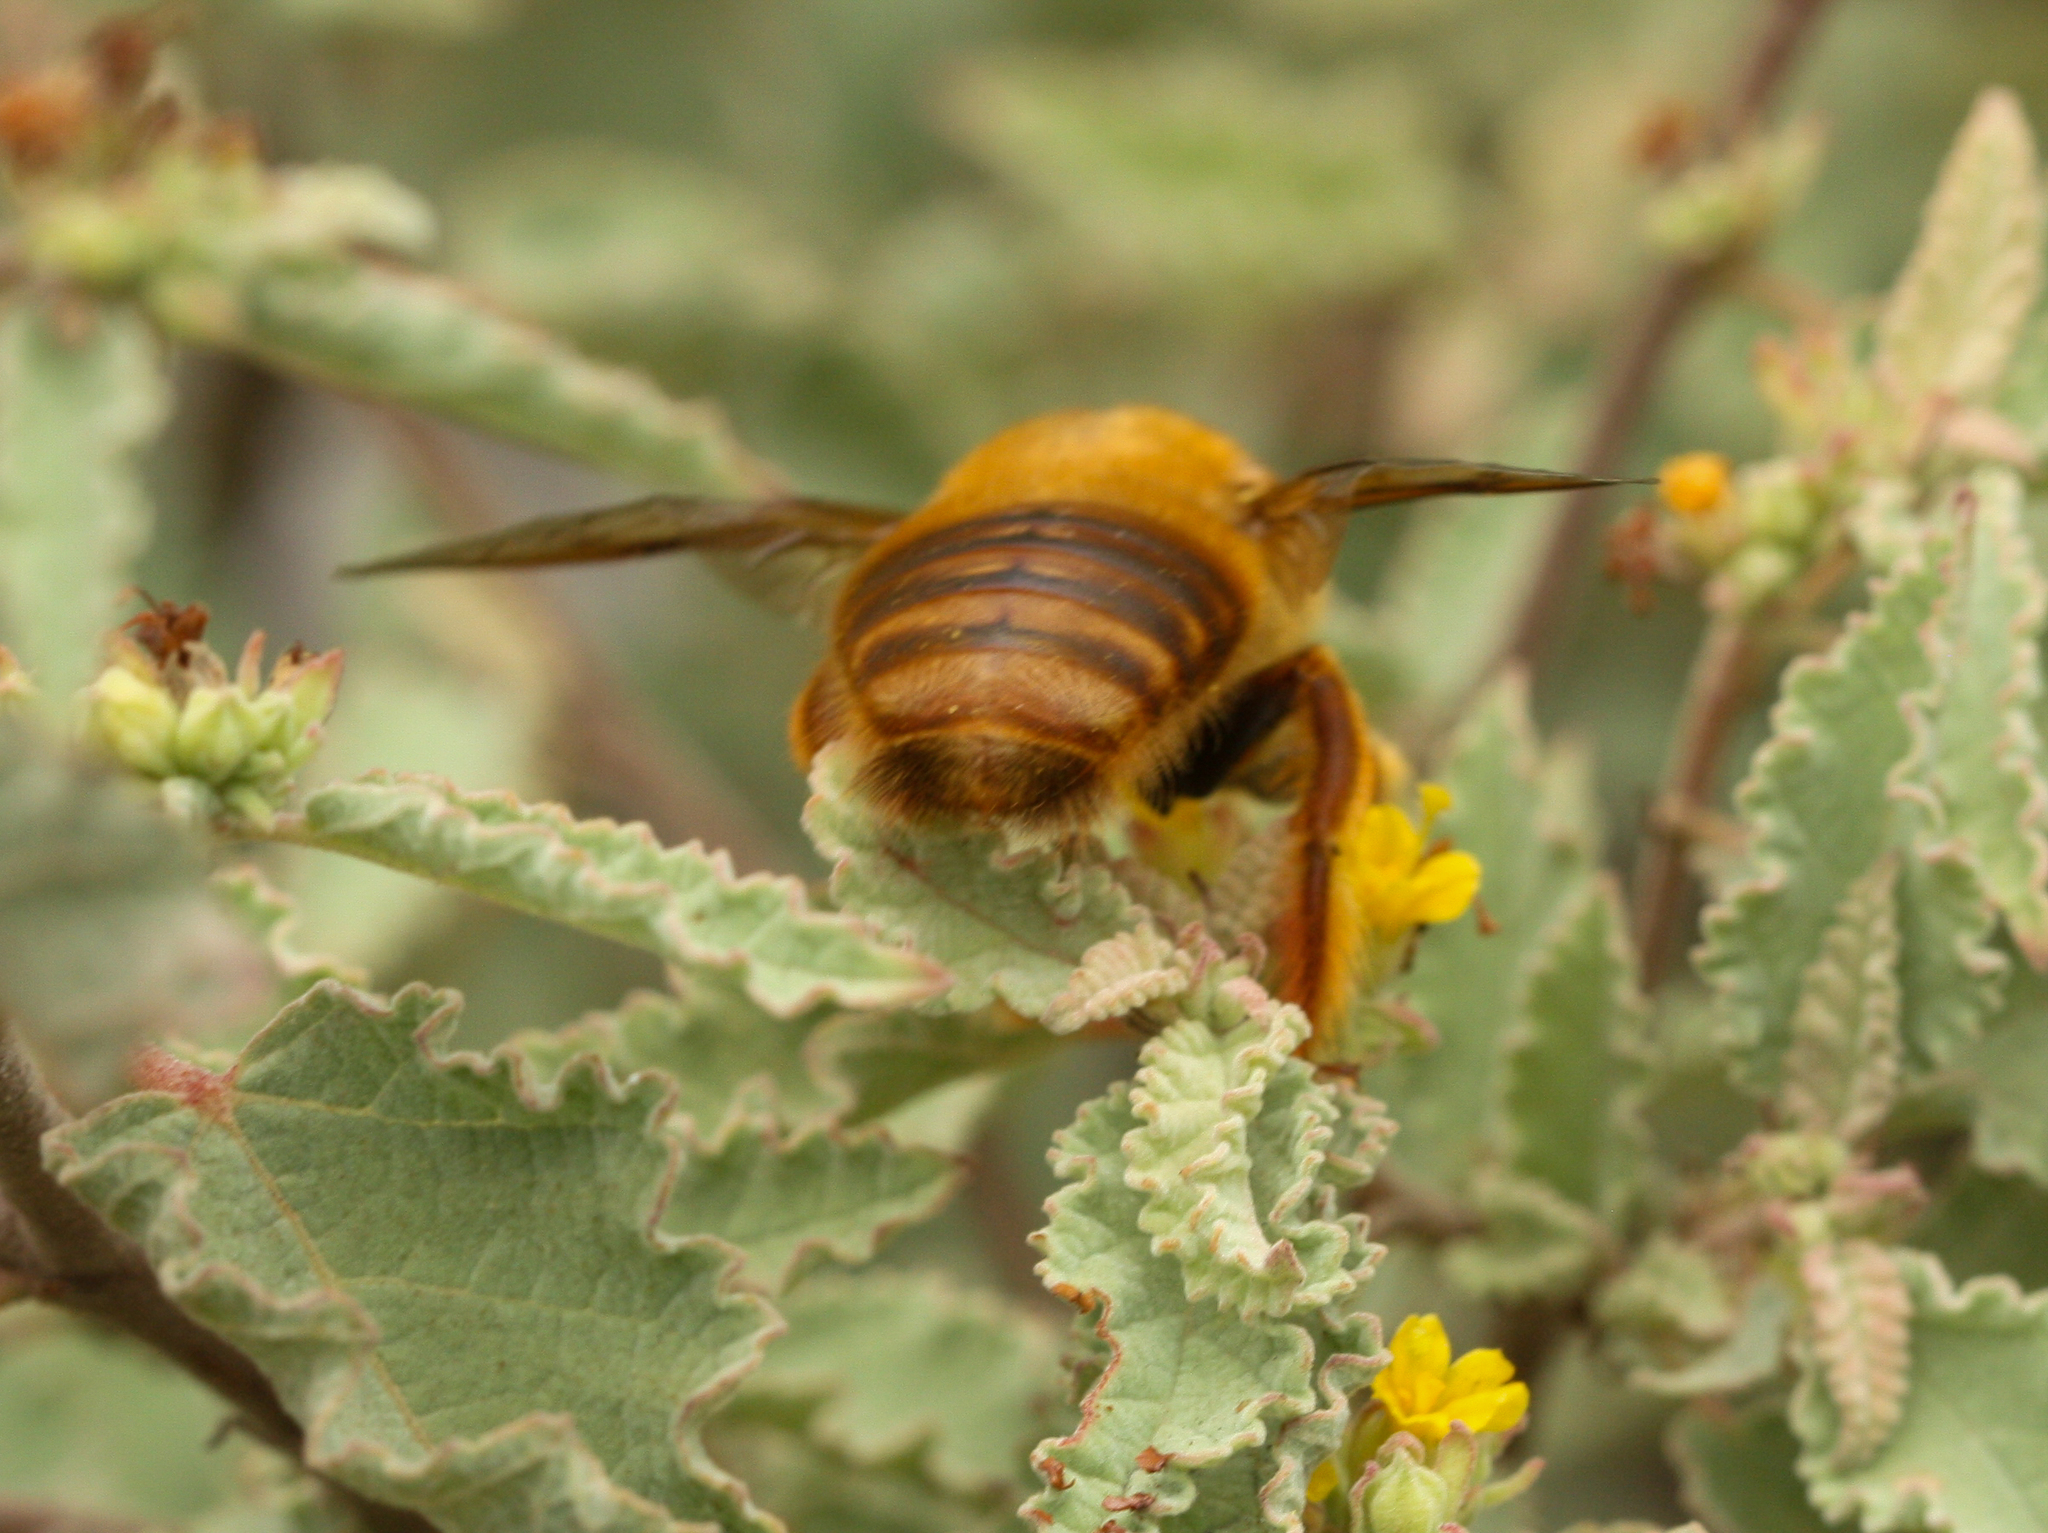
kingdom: Animalia
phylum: Arthropoda
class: Insecta
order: Hymenoptera
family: Apidae
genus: Xylocopa
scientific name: Xylocopa darwini
